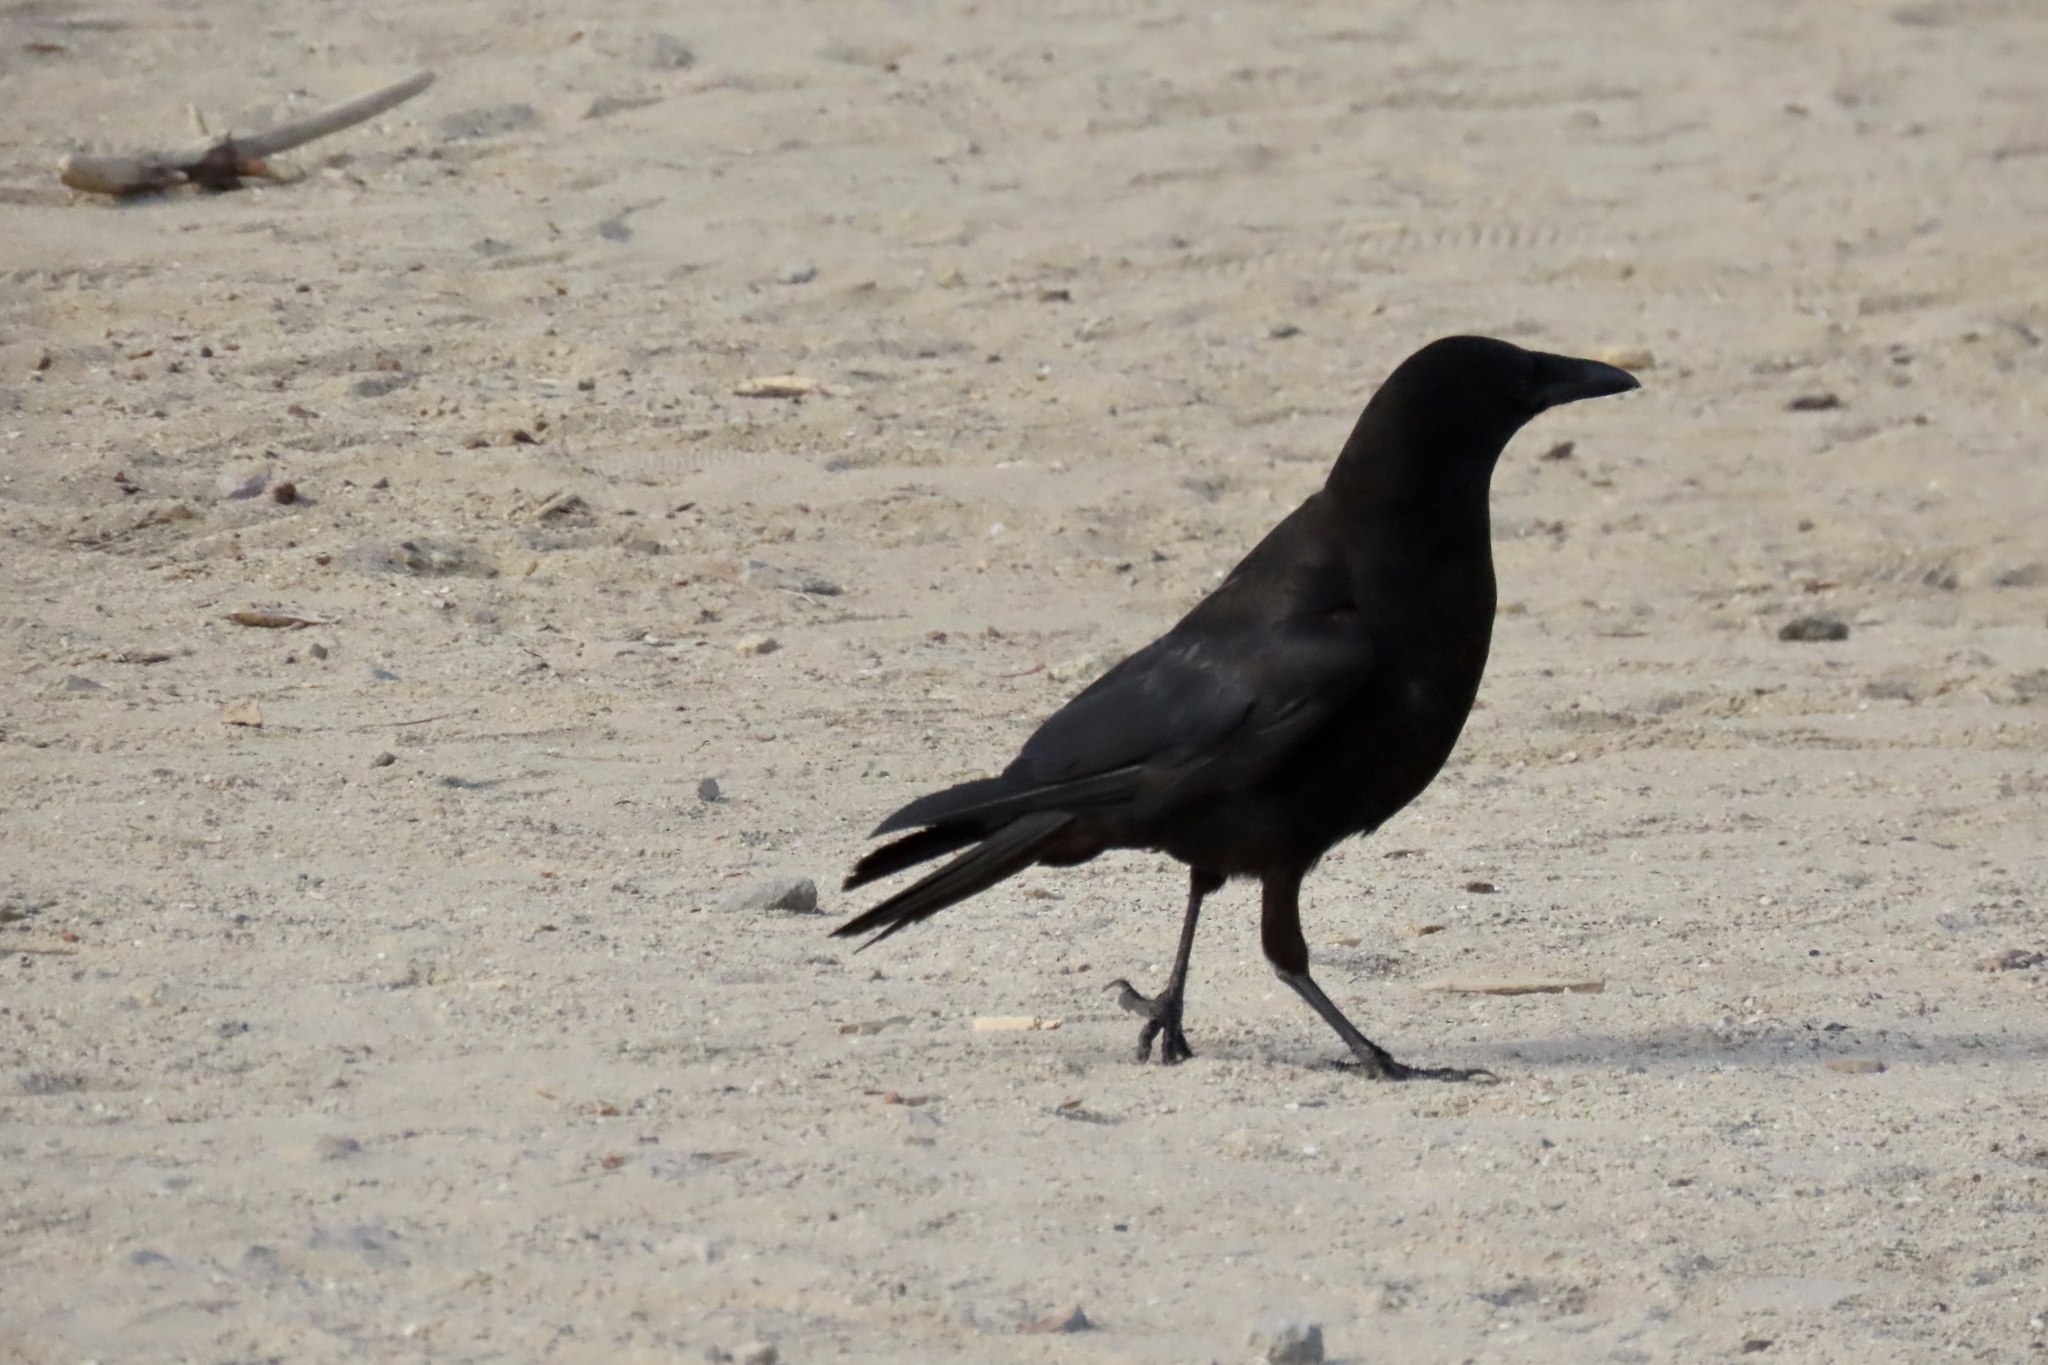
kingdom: Animalia
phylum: Chordata
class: Aves
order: Passeriformes
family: Corvidae
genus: Corvus
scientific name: Corvus brachyrhynchos
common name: American crow
